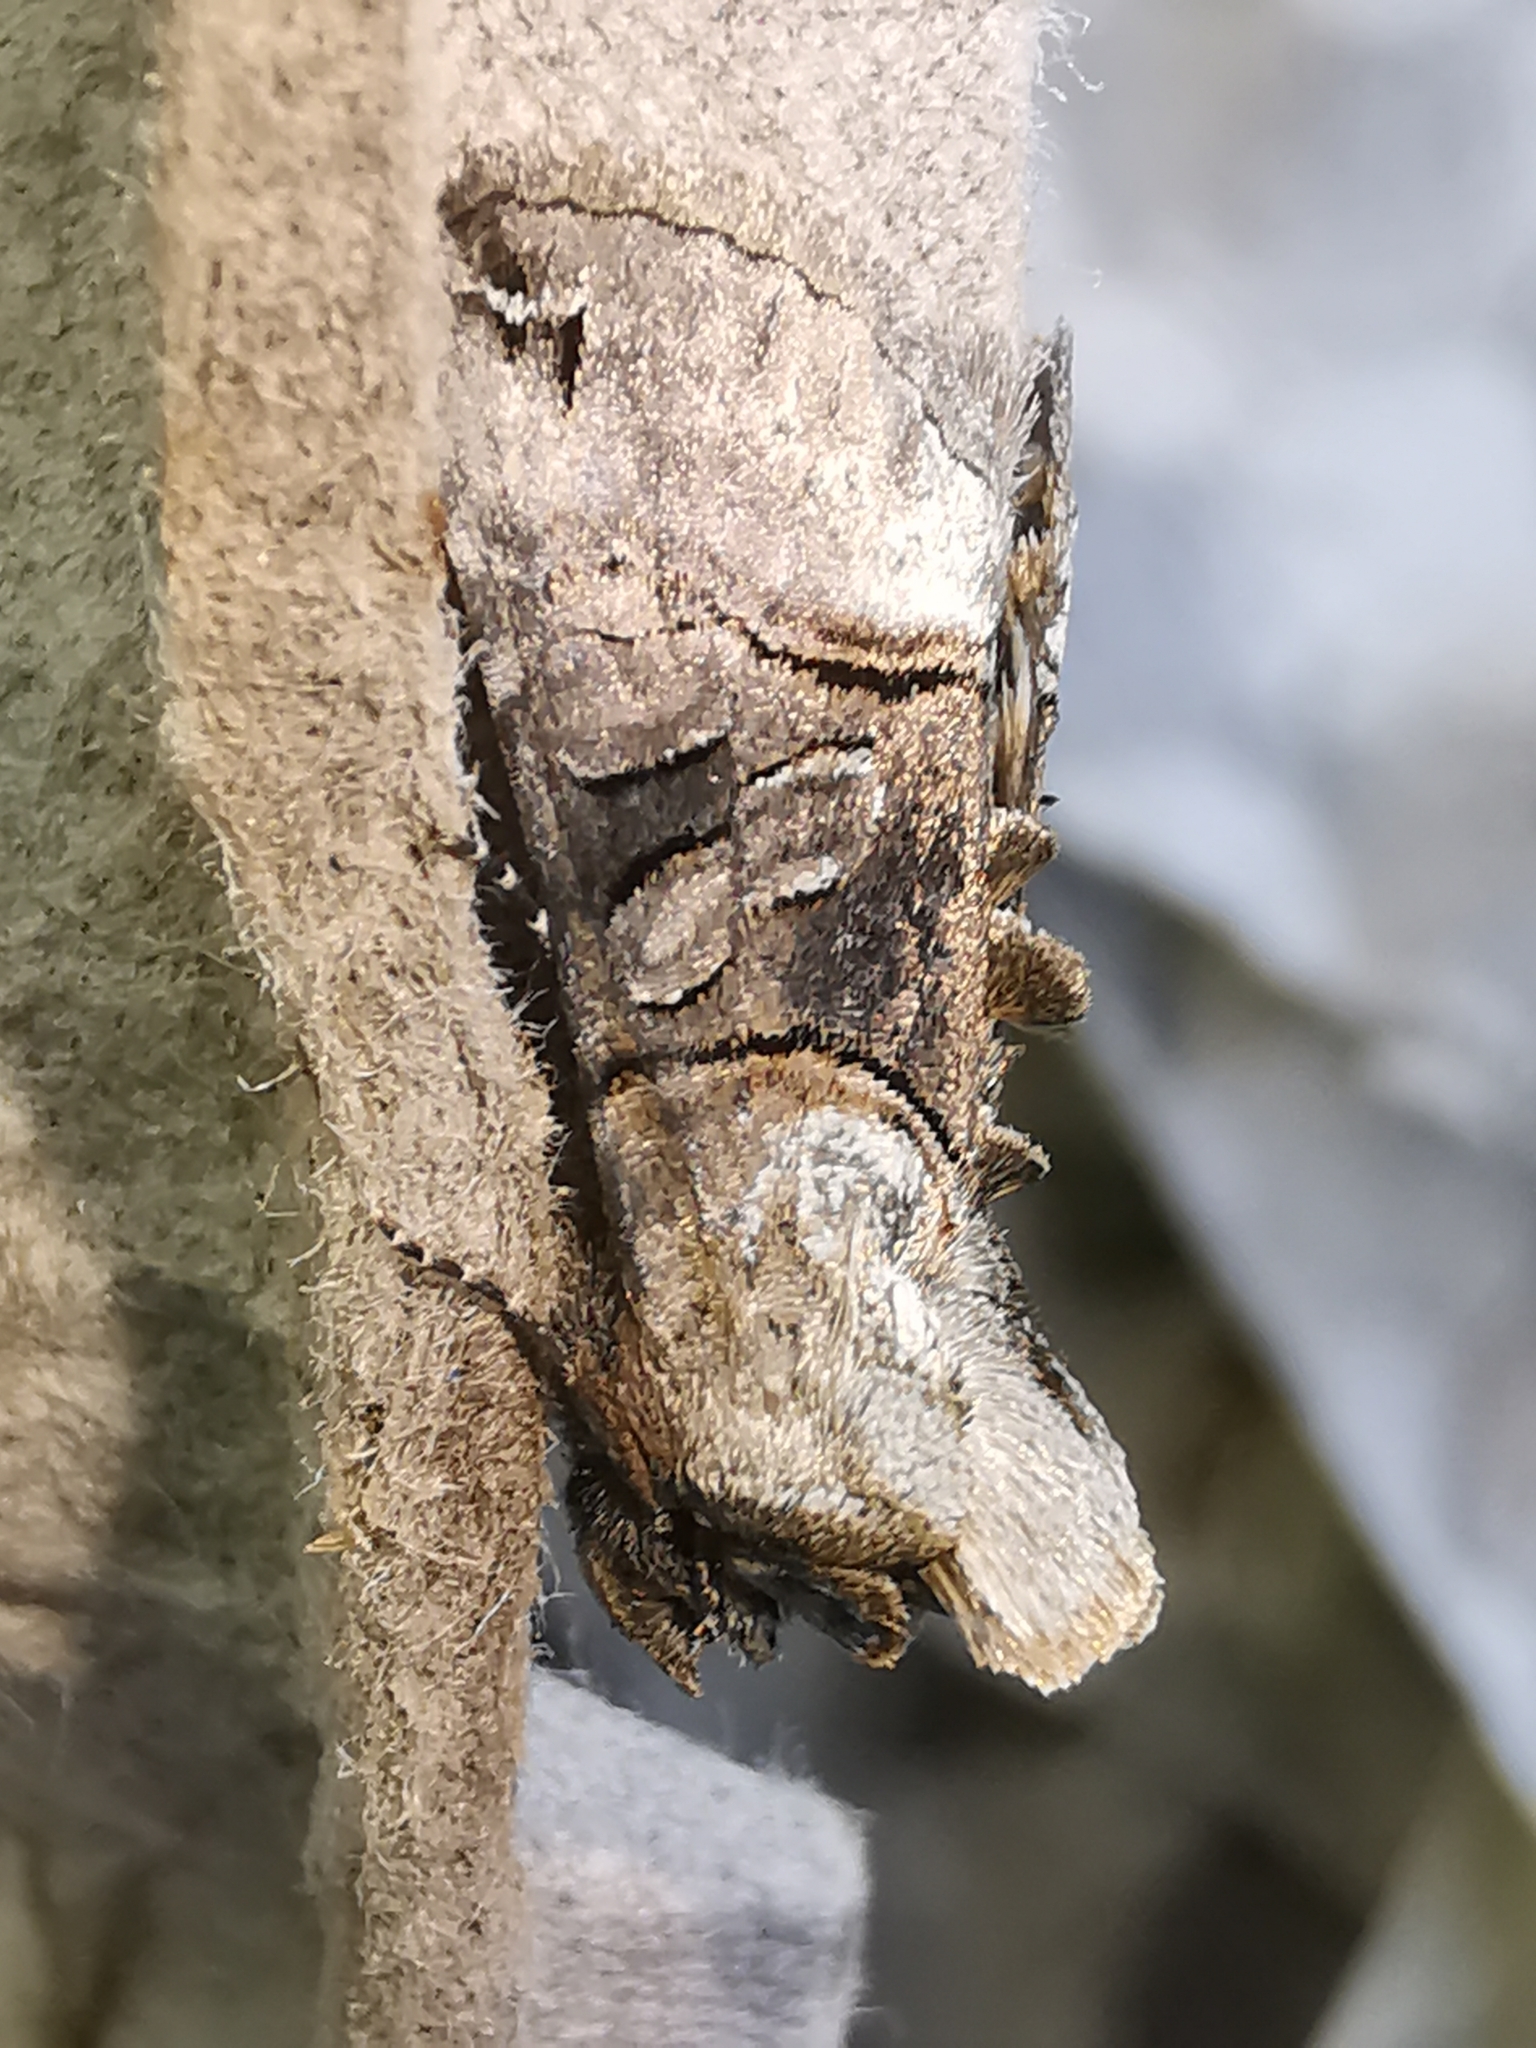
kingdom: Animalia
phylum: Arthropoda
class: Insecta
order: Lepidoptera
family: Noctuidae
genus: Abrostola
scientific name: Abrostola tripartita
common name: Spectacle
